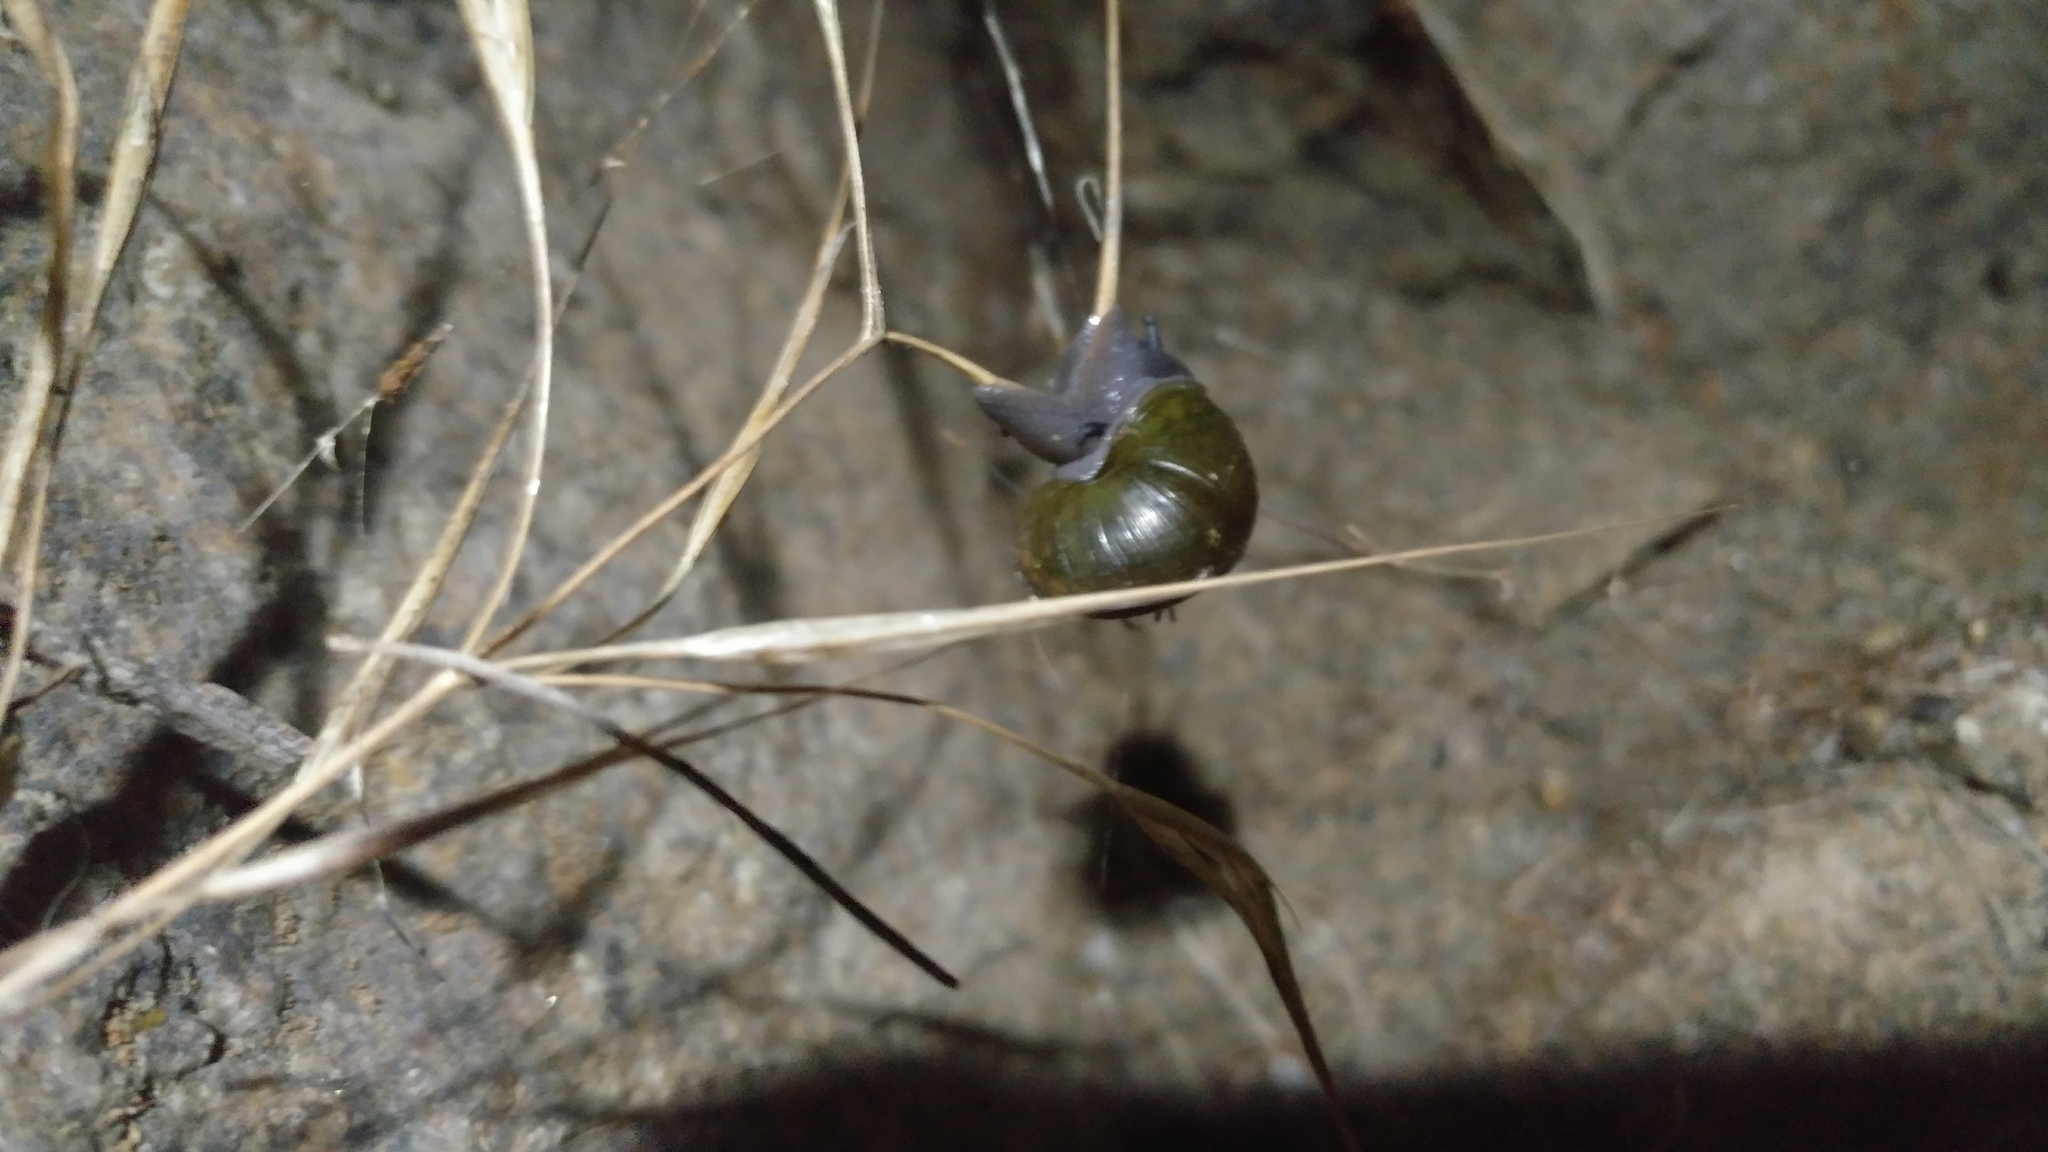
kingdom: Animalia
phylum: Mollusca
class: Gastropoda
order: Stylommatophora
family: Xanthonychidae
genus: Helminthoglypta
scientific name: Helminthoglypta tudiculata
